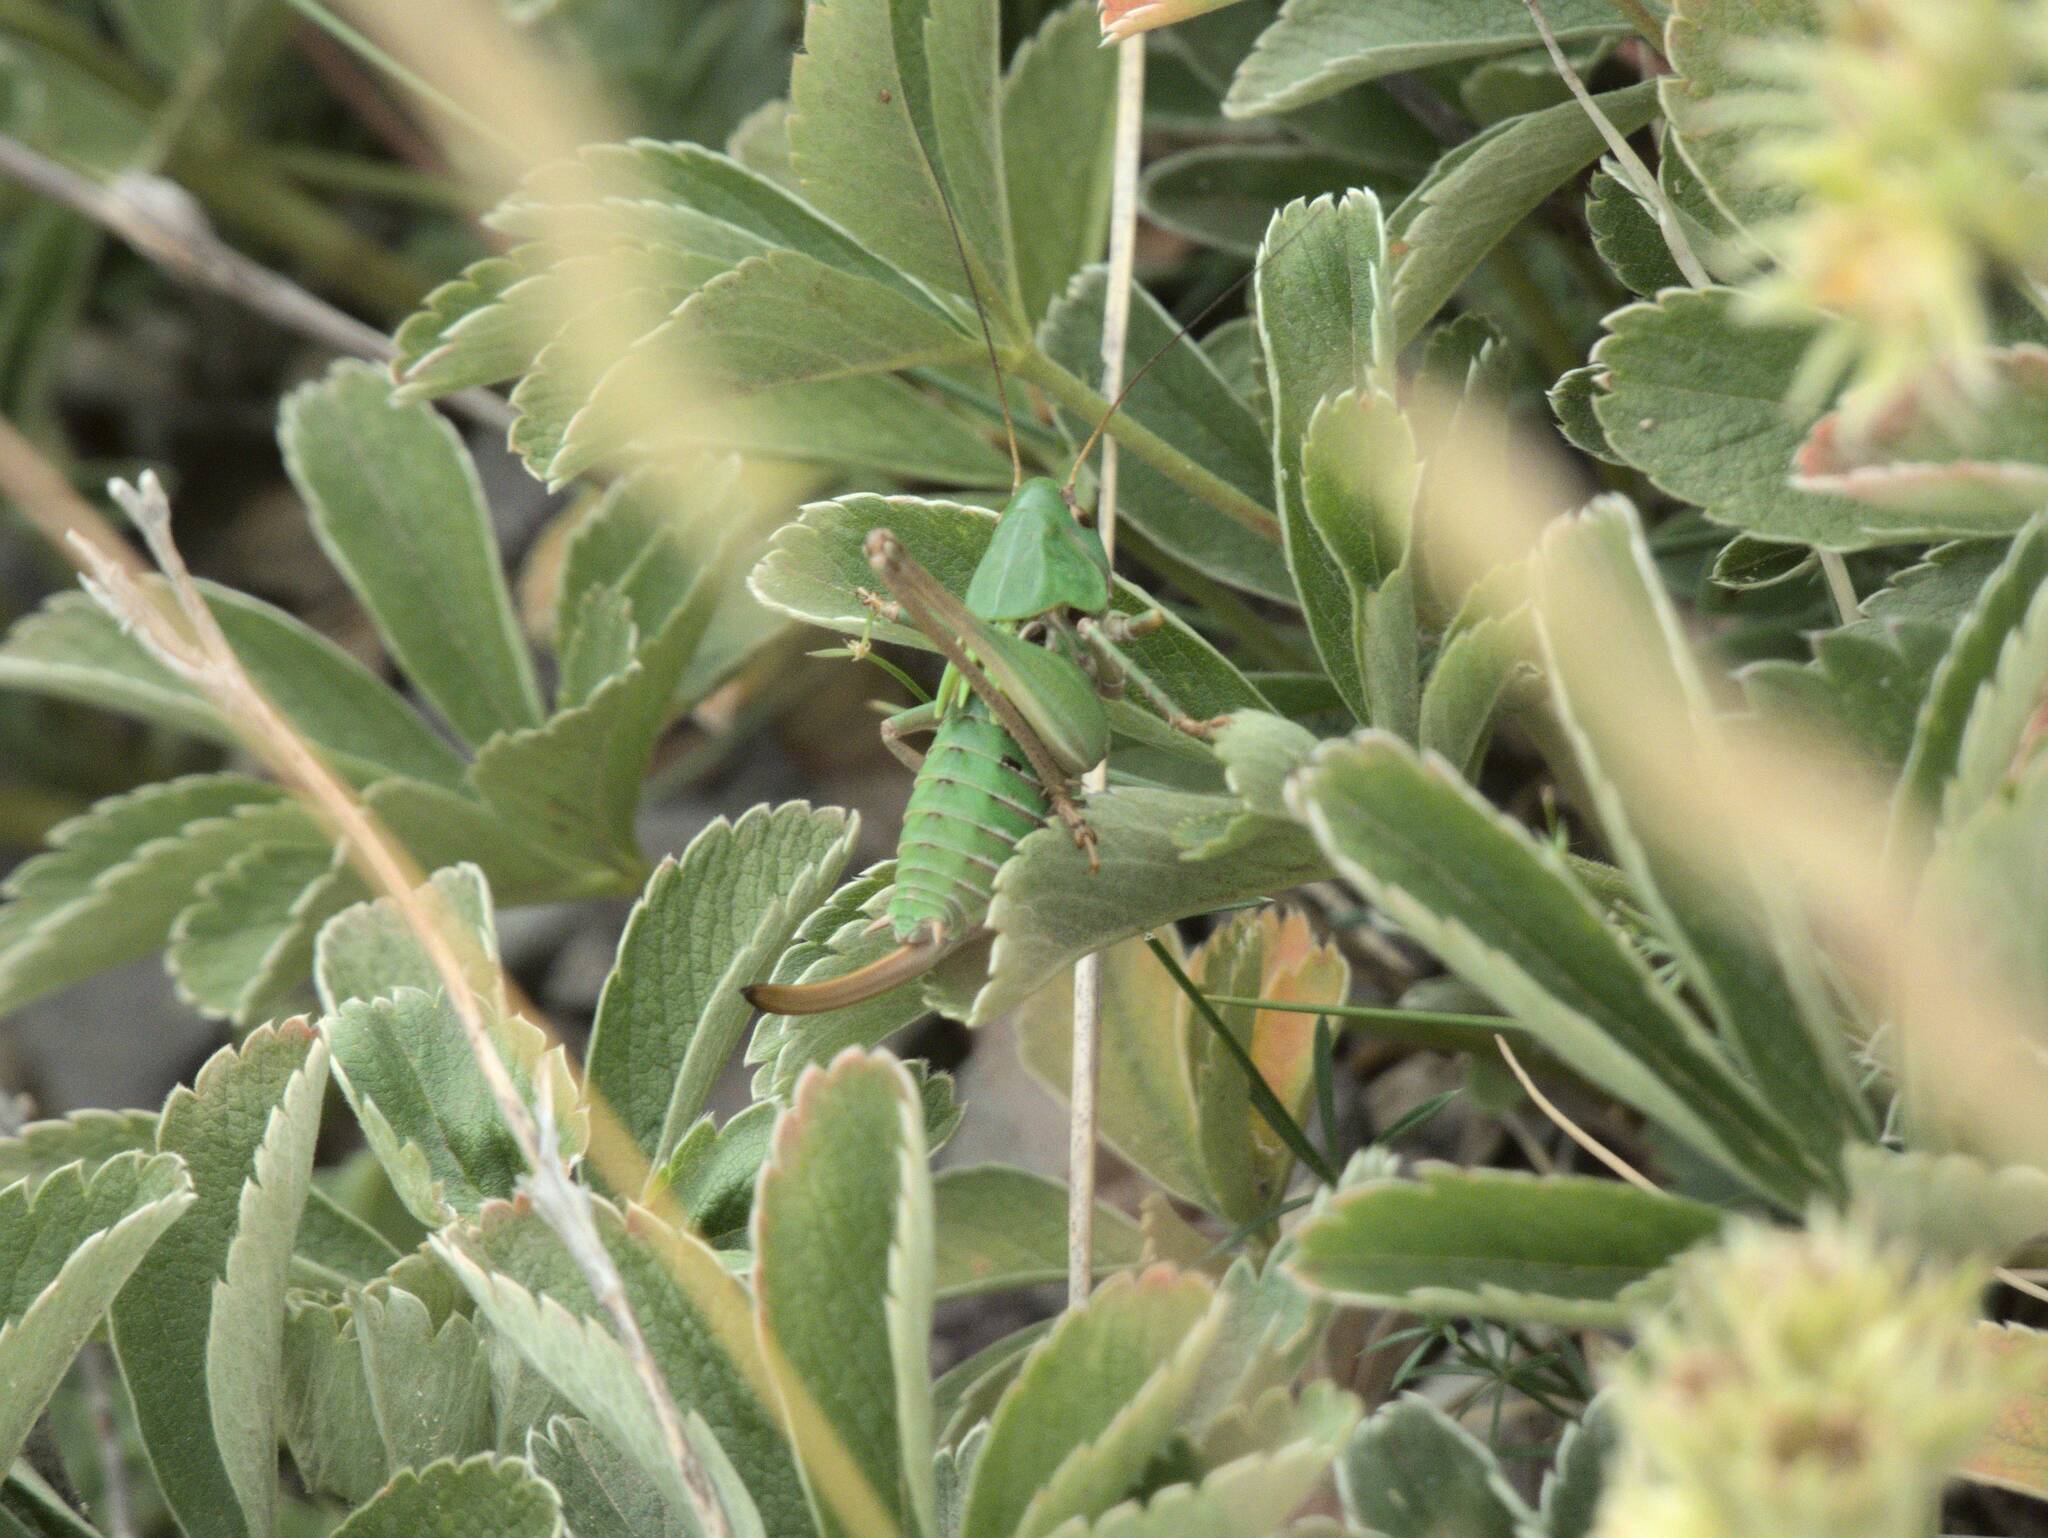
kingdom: Animalia
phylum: Arthropoda
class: Insecta
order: Orthoptera
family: Tettigoniidae
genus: Decticus
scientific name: Decticus verrucivorus
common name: Wart-biter
